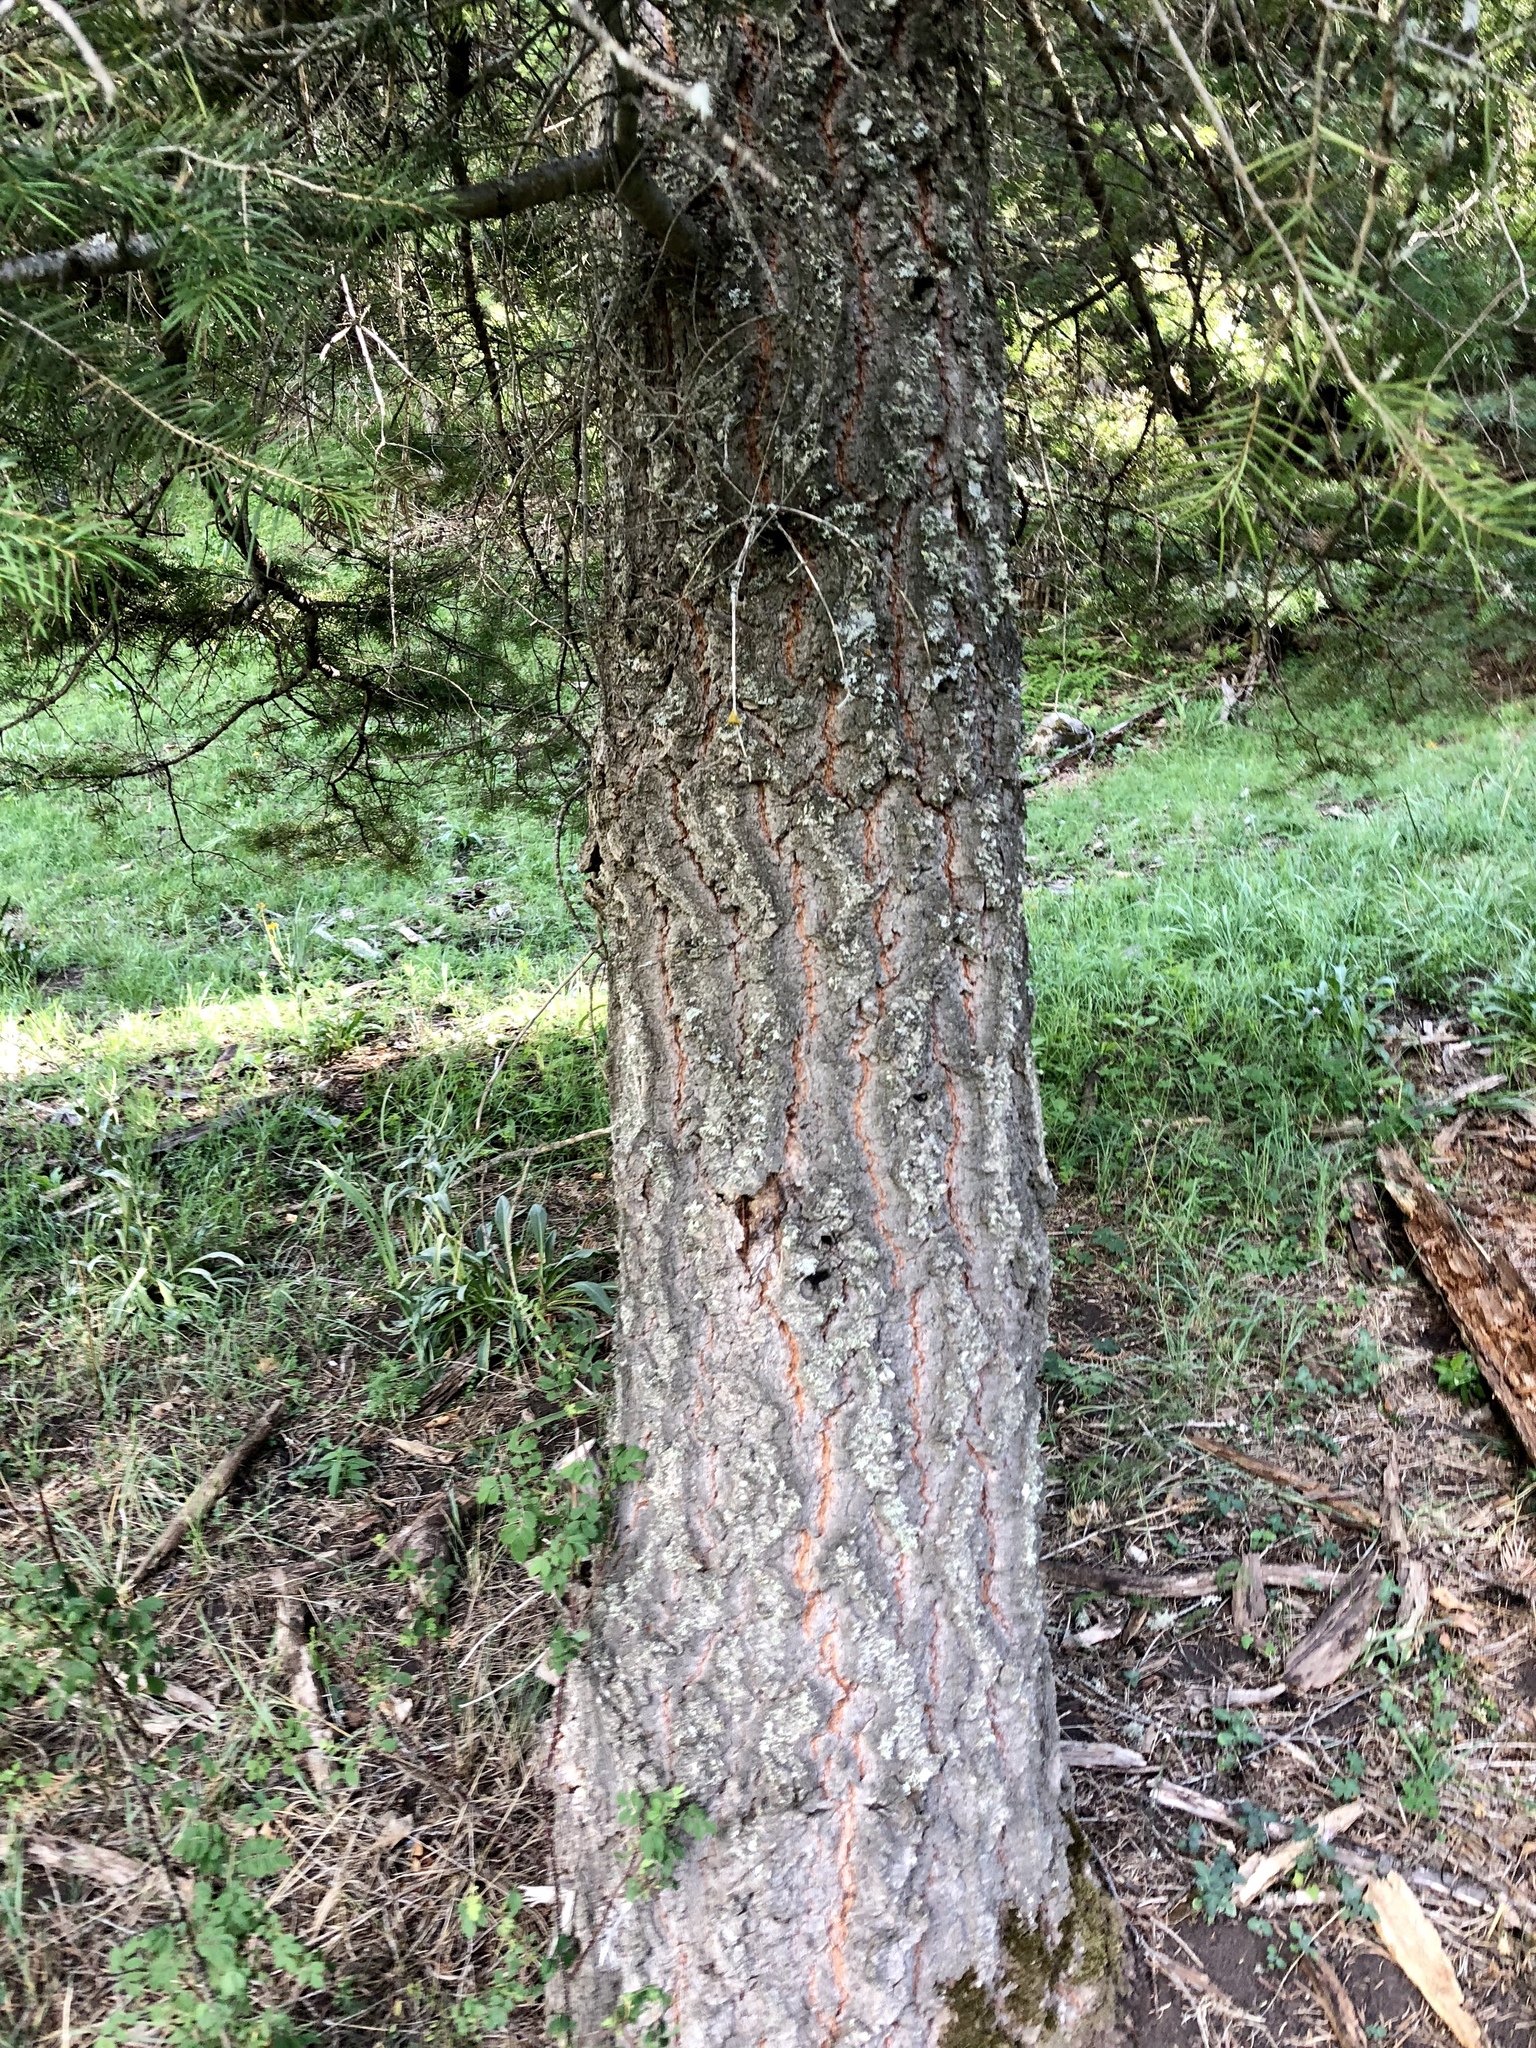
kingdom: Plantae
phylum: Tracheophyta
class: Pinopsida
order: Pinales
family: Pinaceae
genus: Abies
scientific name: Abies concolor
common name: Colorado fir
